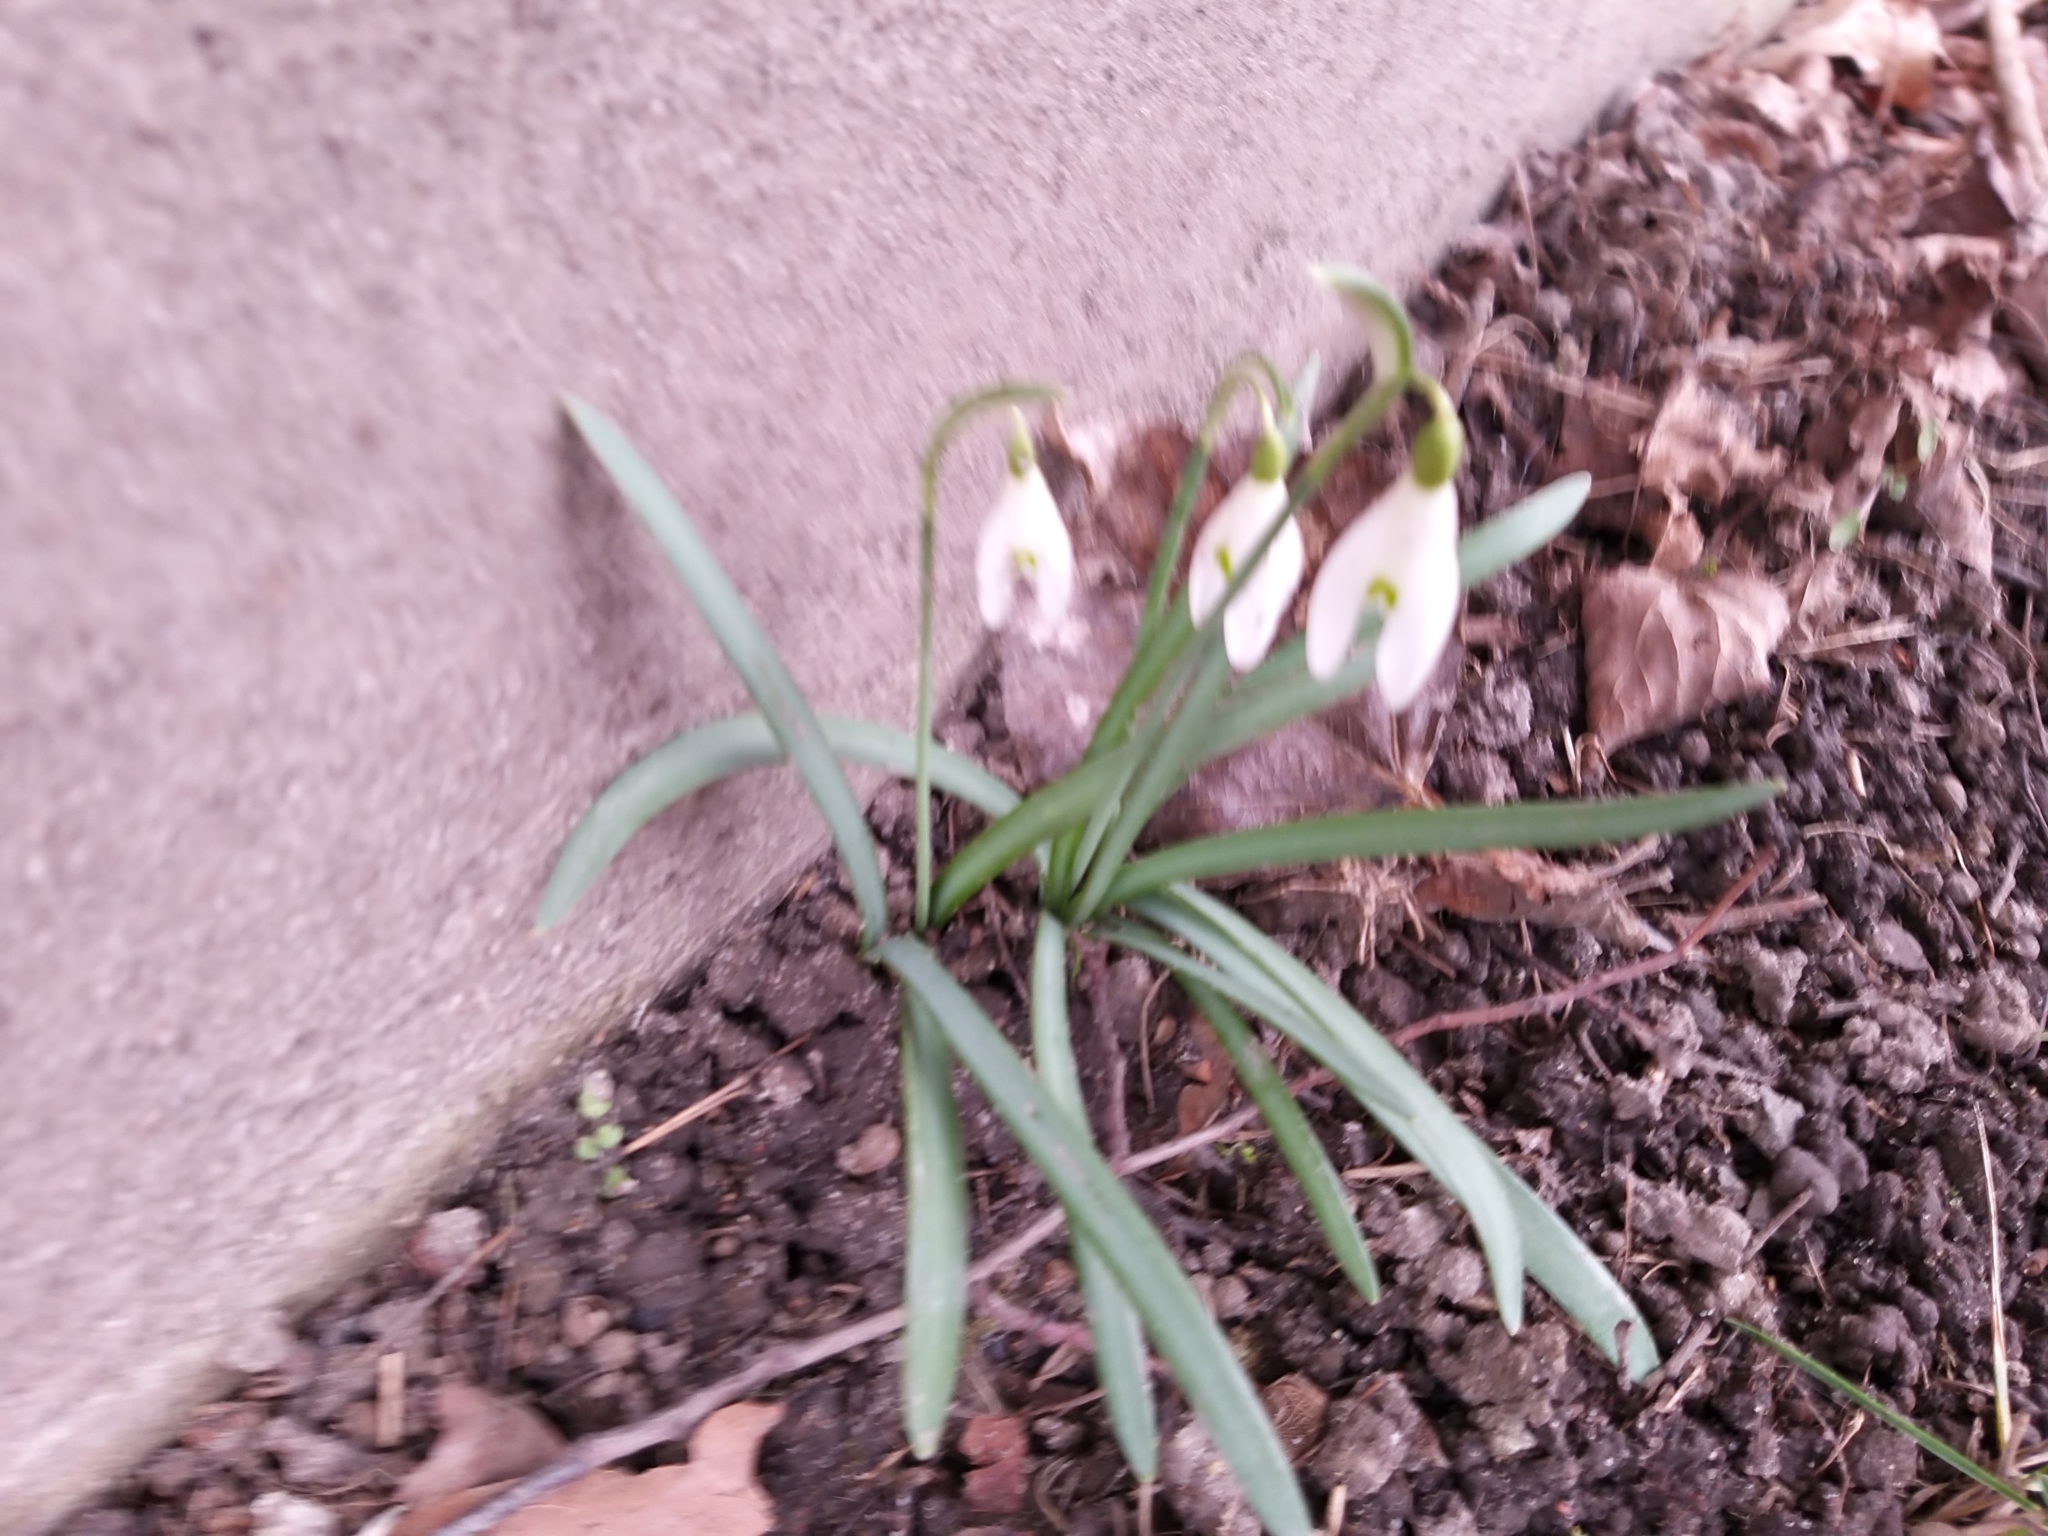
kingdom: Plantae
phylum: Tracheophyta
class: Liliopsida
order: Asparagales
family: Amaryllidaceae
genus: Galanthus
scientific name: Galanthus nivalis
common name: Snowdrop
